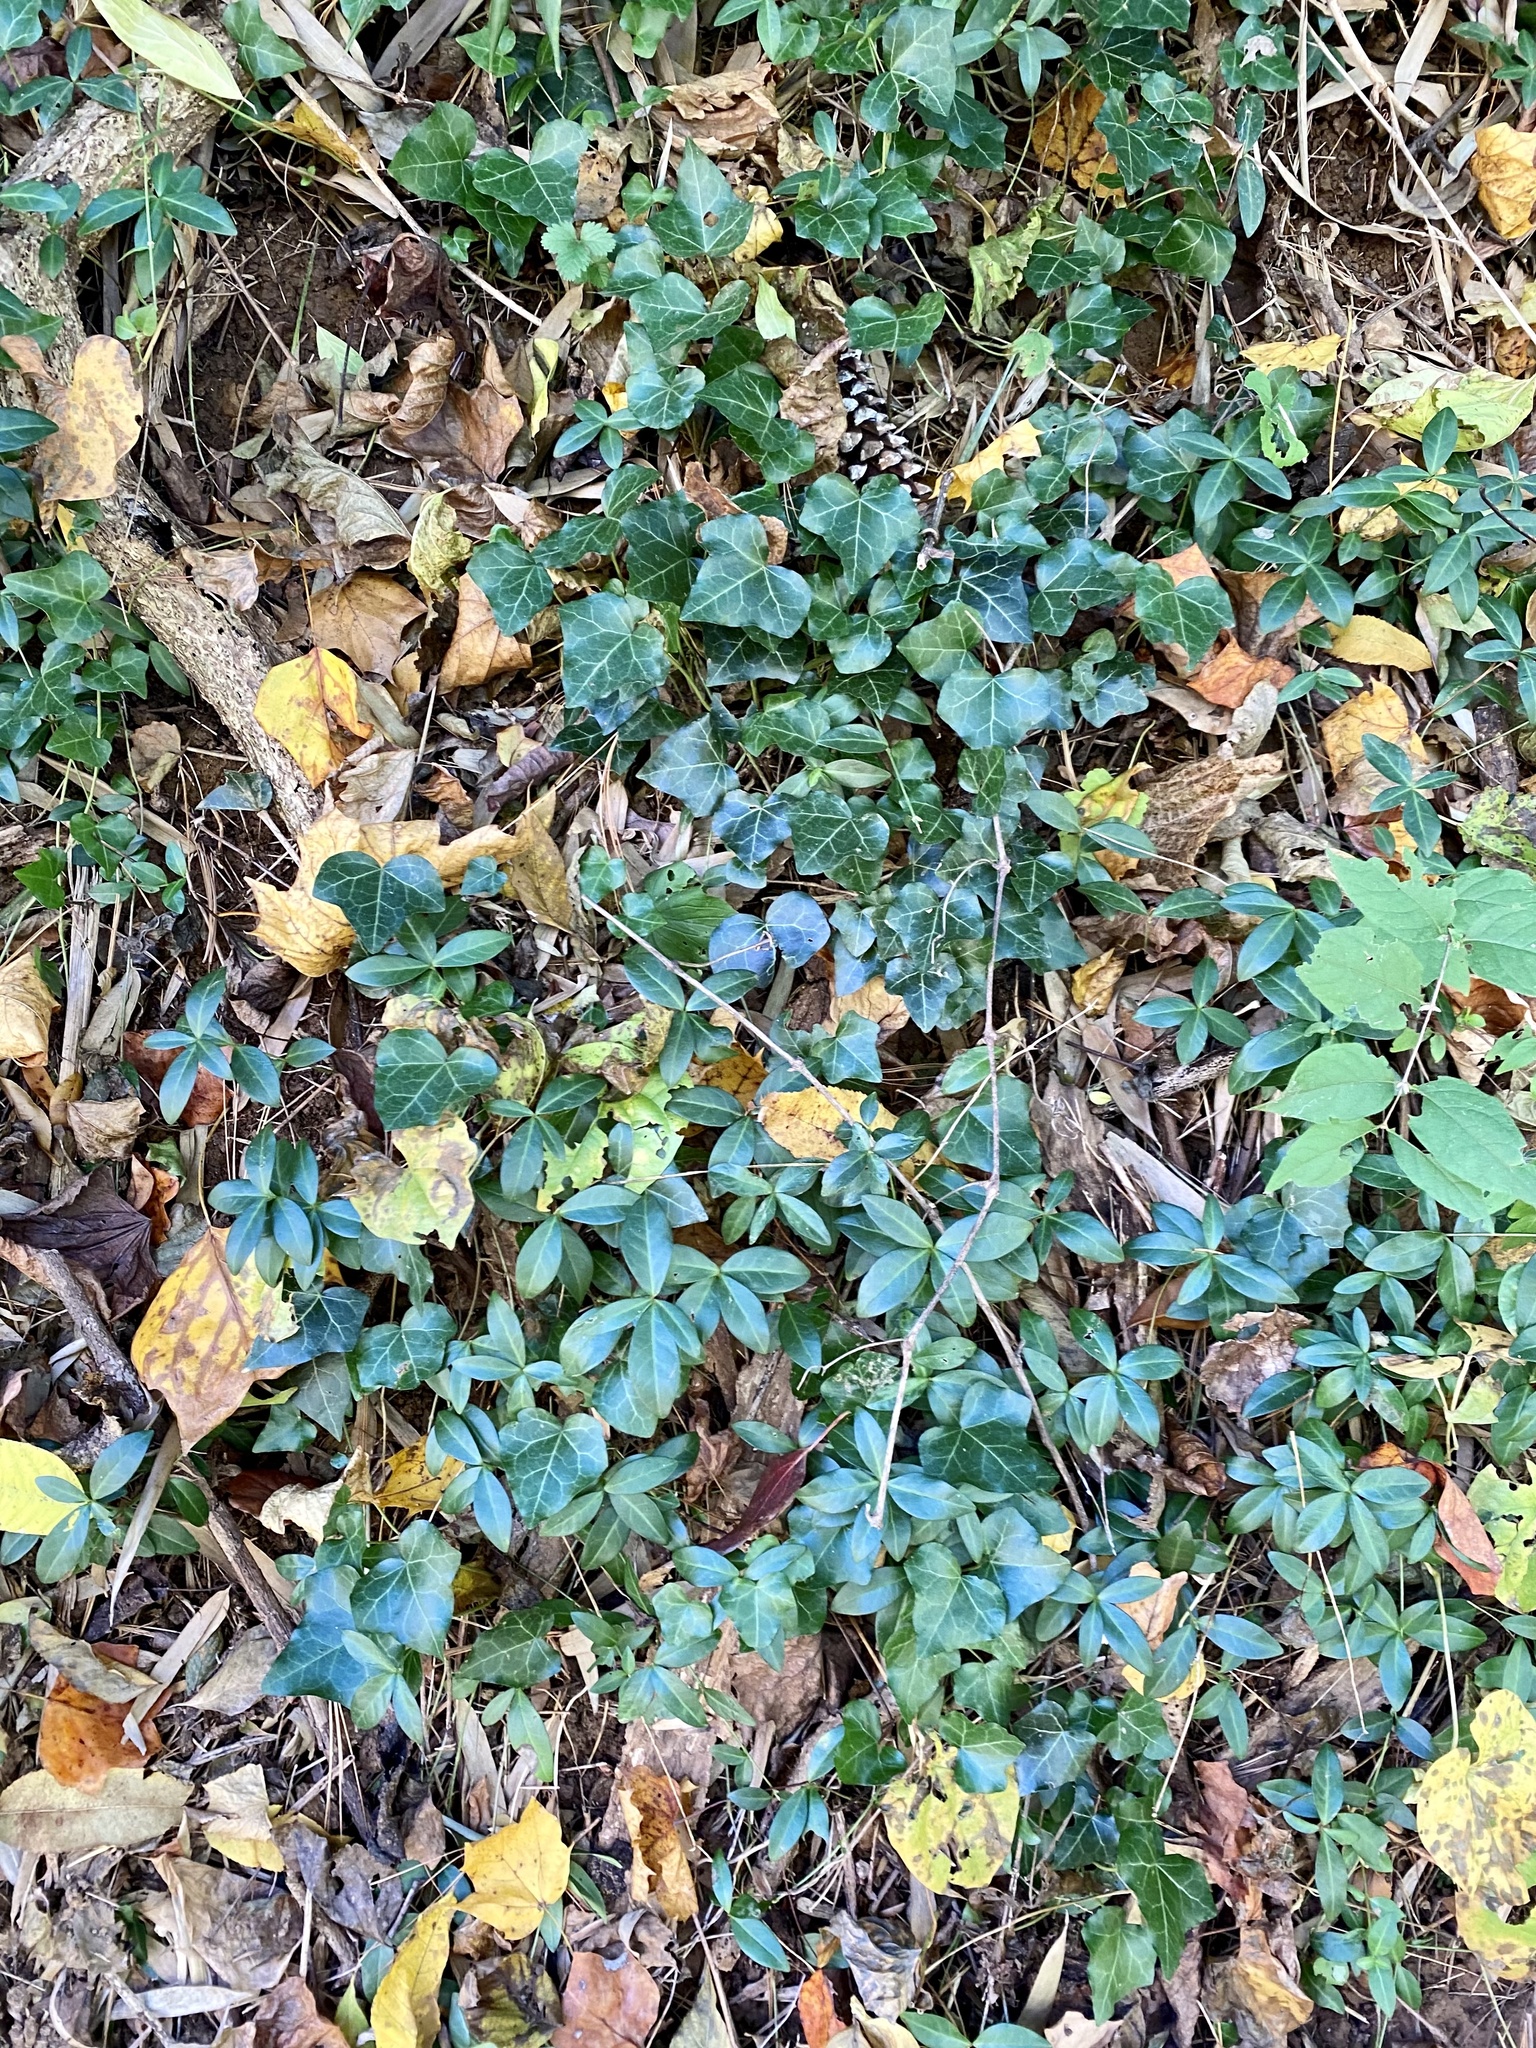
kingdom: Plantae
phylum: Tracheophyta
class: Magnoliopsida
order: Gentianales
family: Apocynaceae
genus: Vinca
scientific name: Vinca minor
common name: Lesser periwinkle
